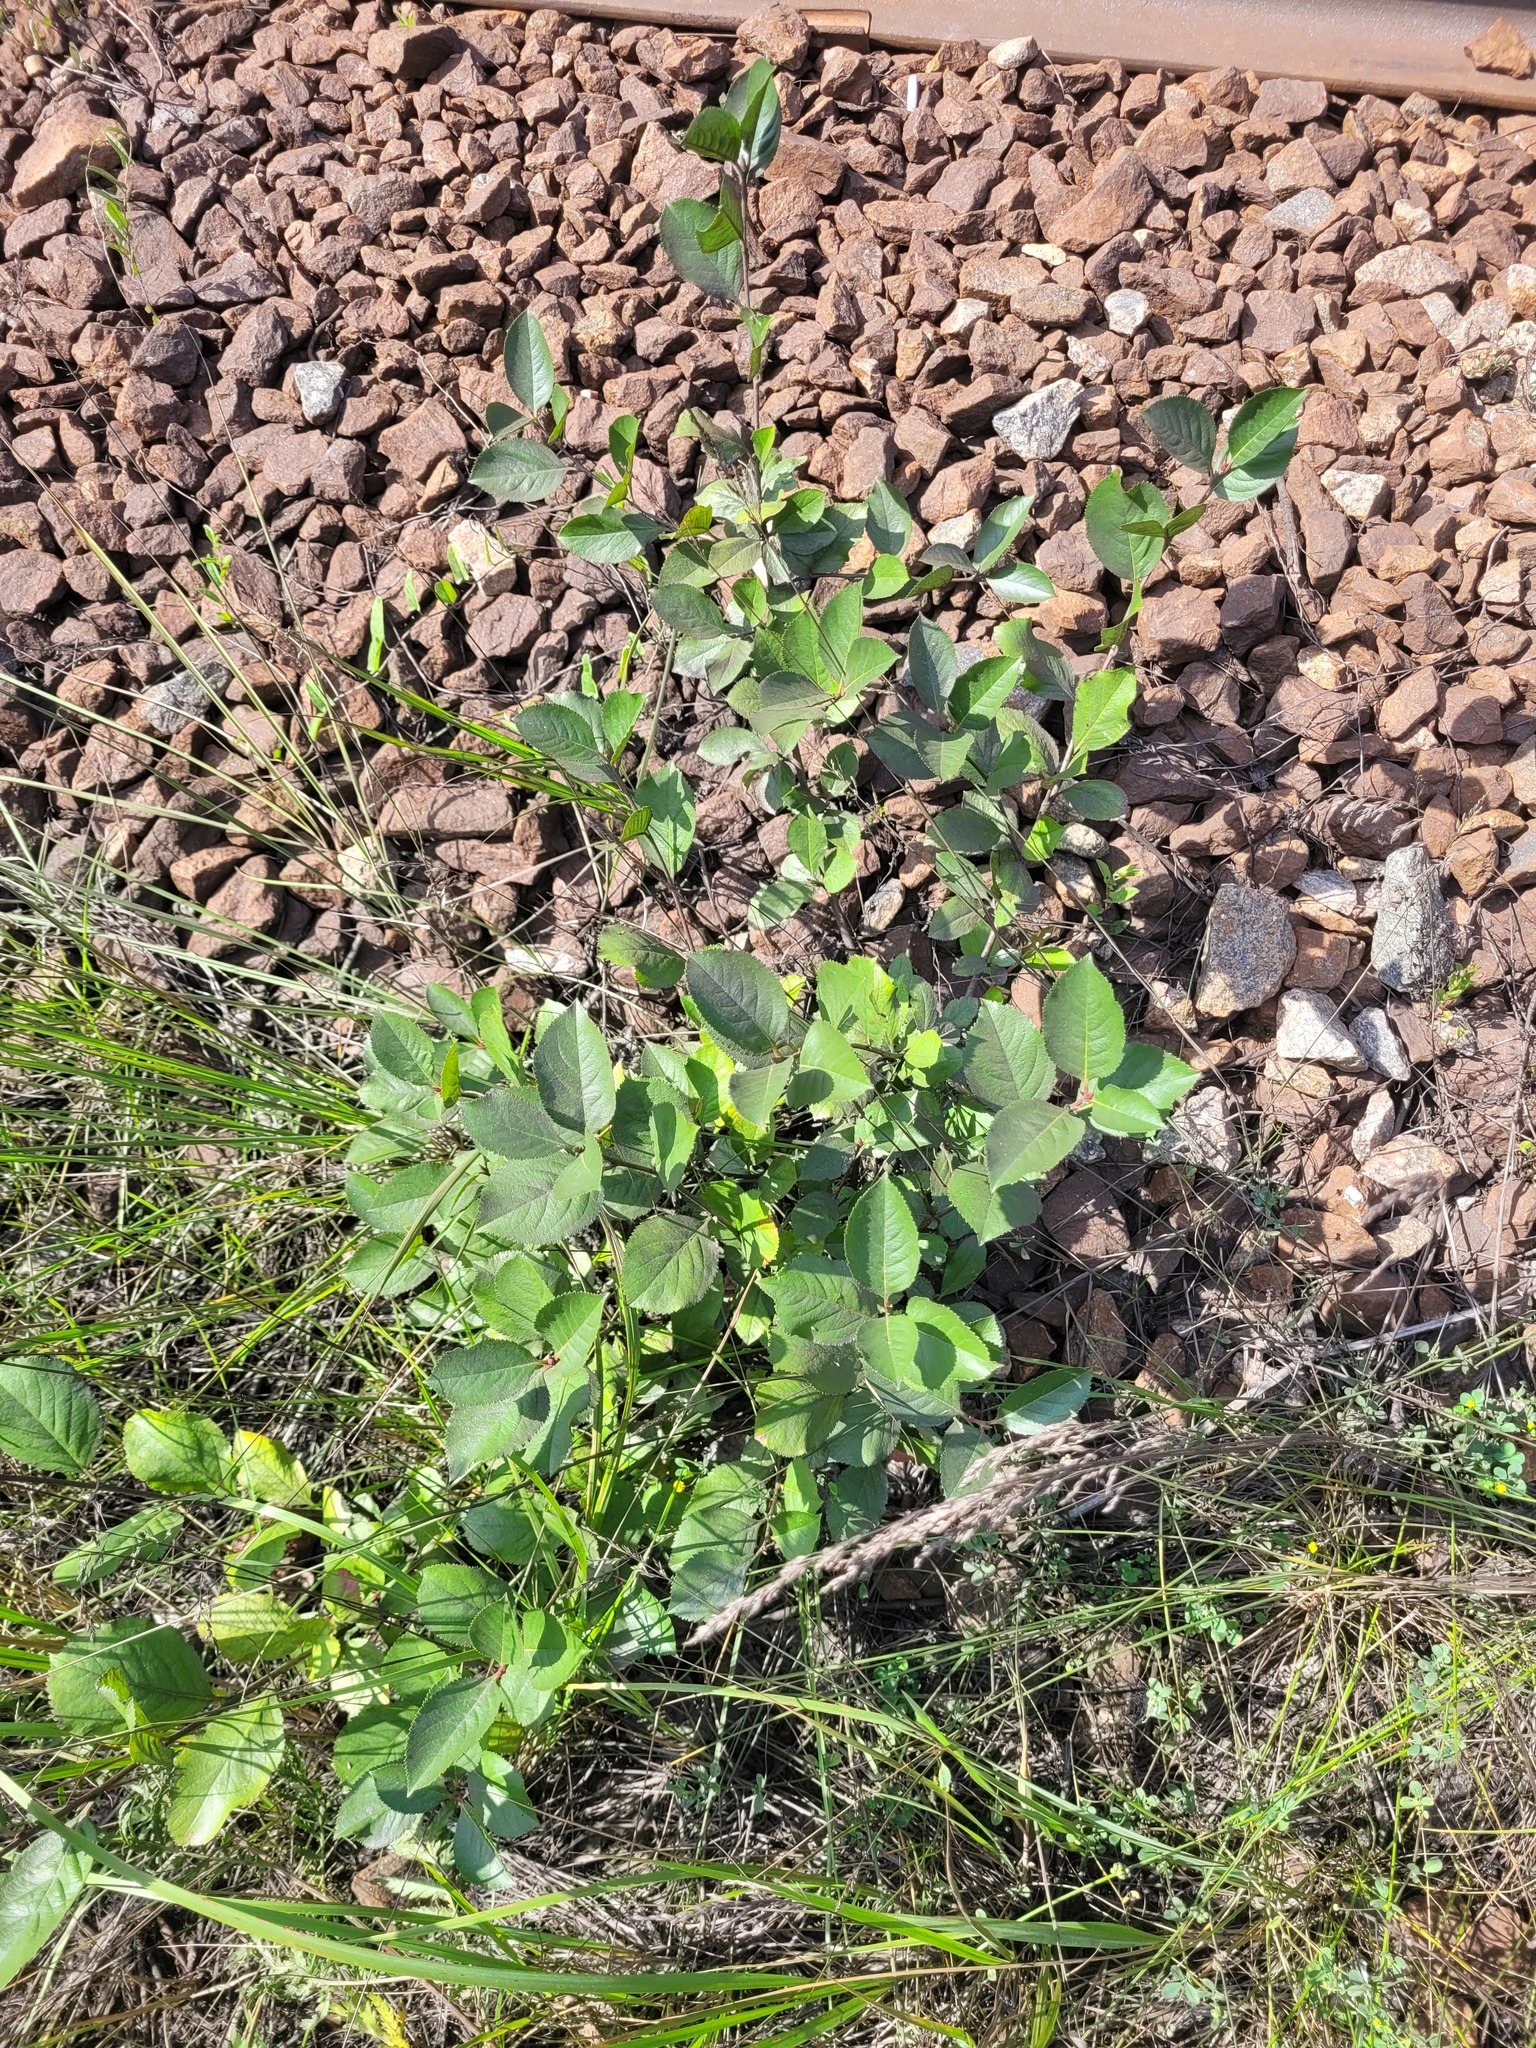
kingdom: Plantae
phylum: Tracheophyta
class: Magnoliopsida
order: Rosales
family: Rosaceae
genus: Sorbaronia
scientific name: Sorbaronia arsenii
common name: Arsène's mountain-ash
